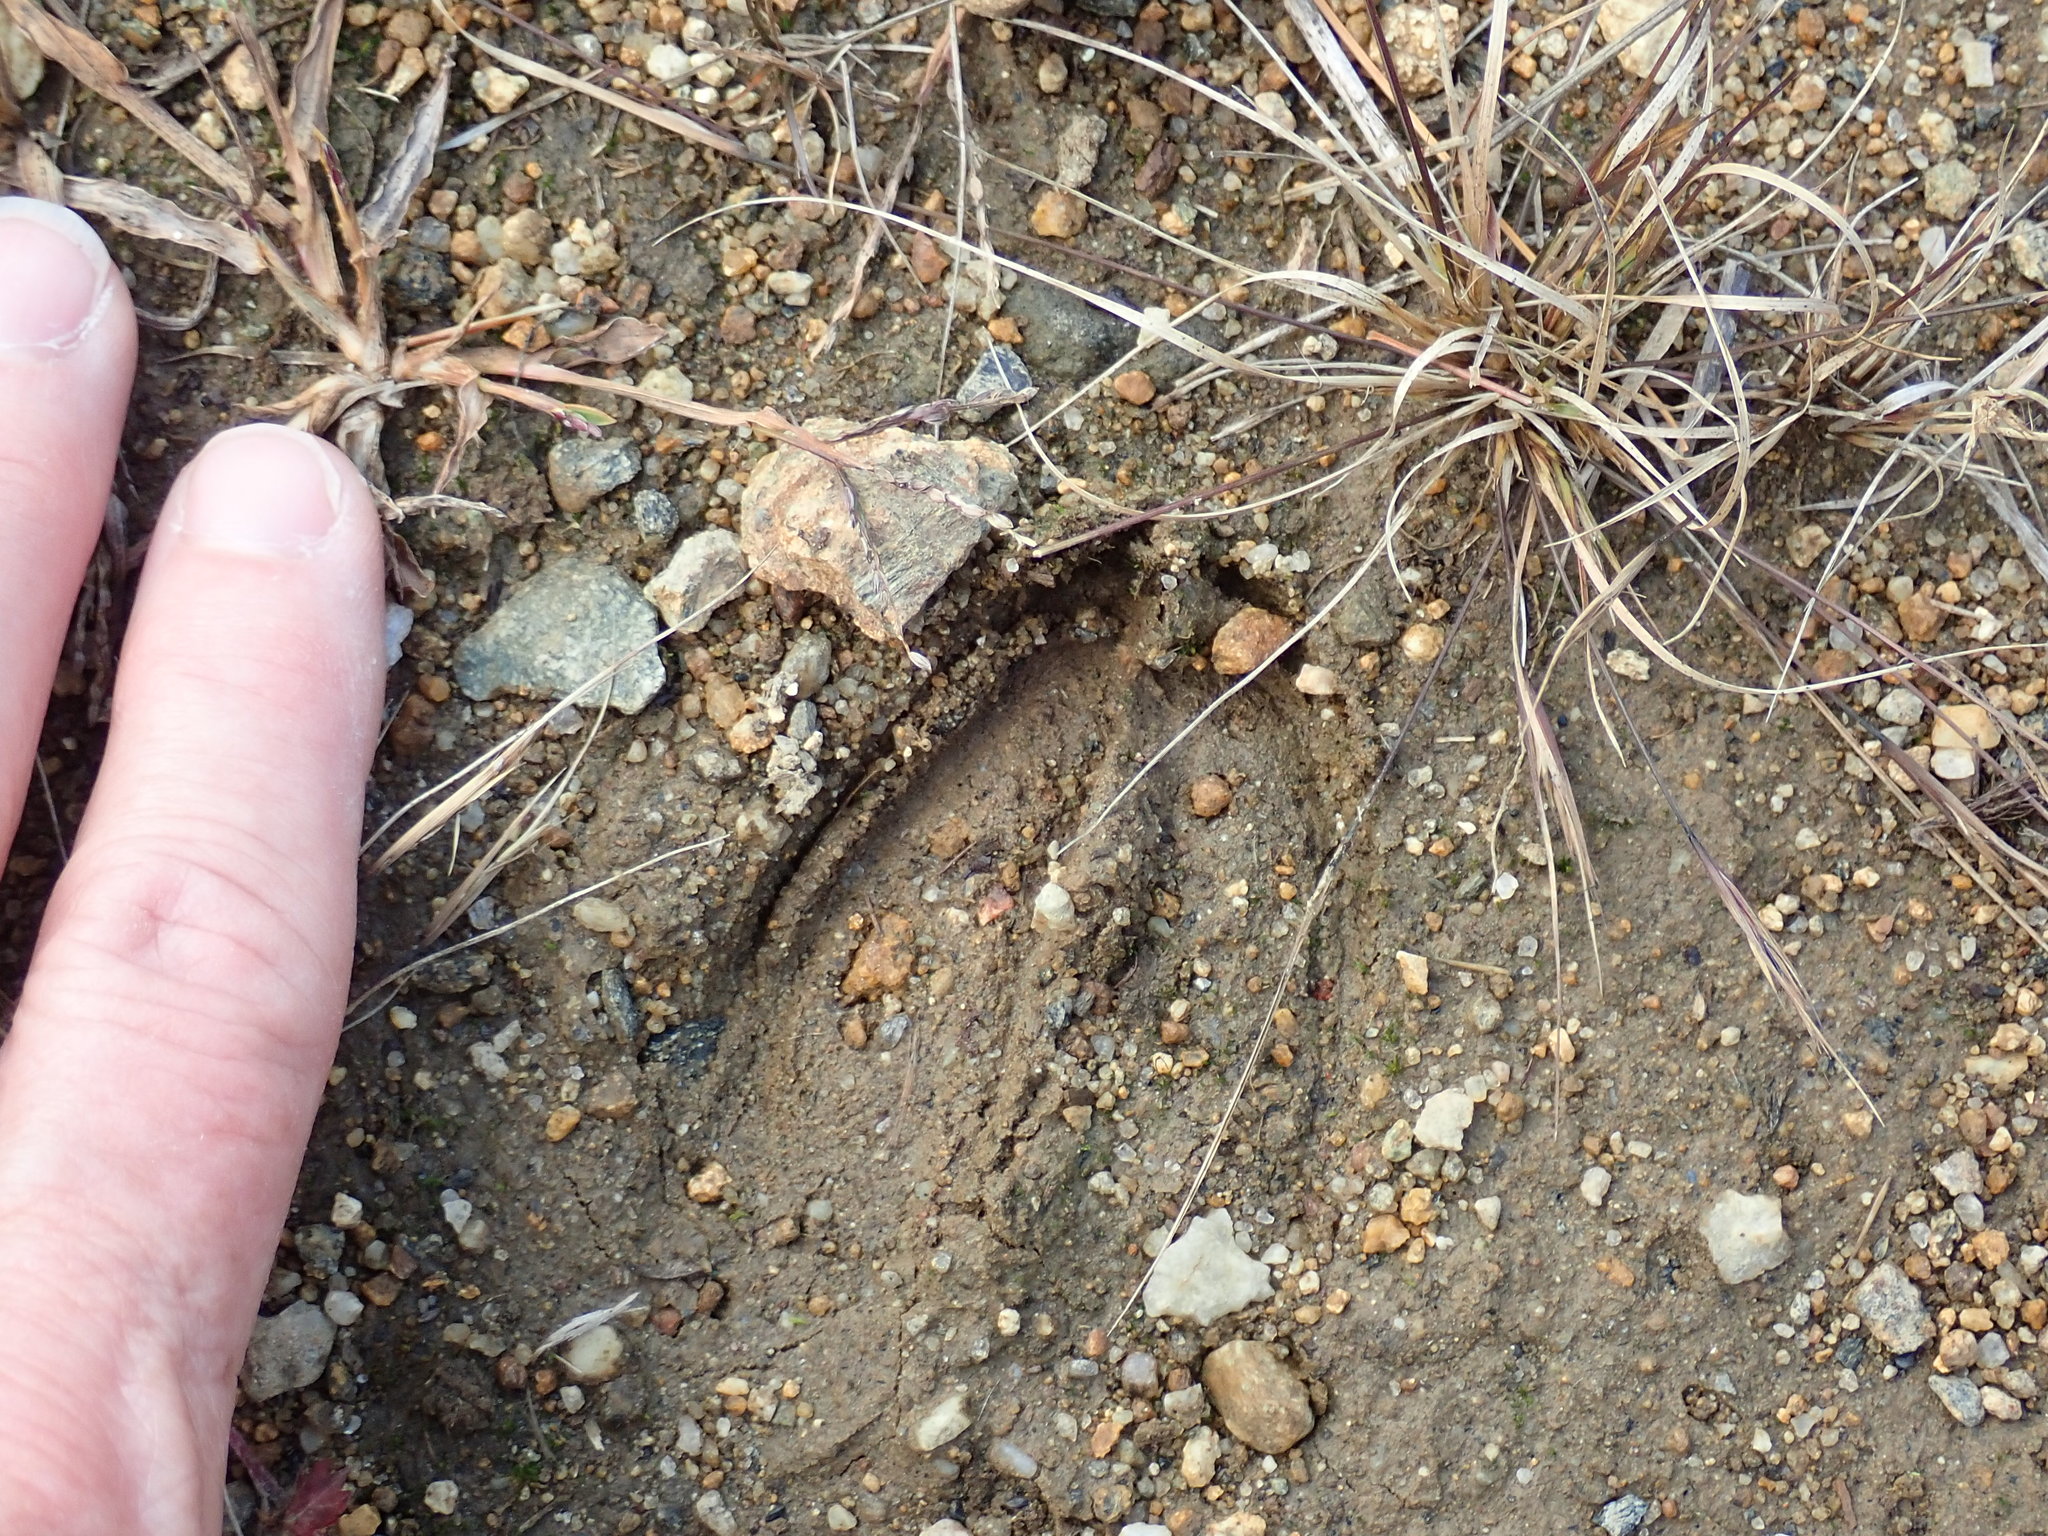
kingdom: Animalia
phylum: Chordata
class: Mammalia
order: Artiodactyla
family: Cervidae
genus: Odocoileus
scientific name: Odocoileus virginianus
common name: White-tailed deer
